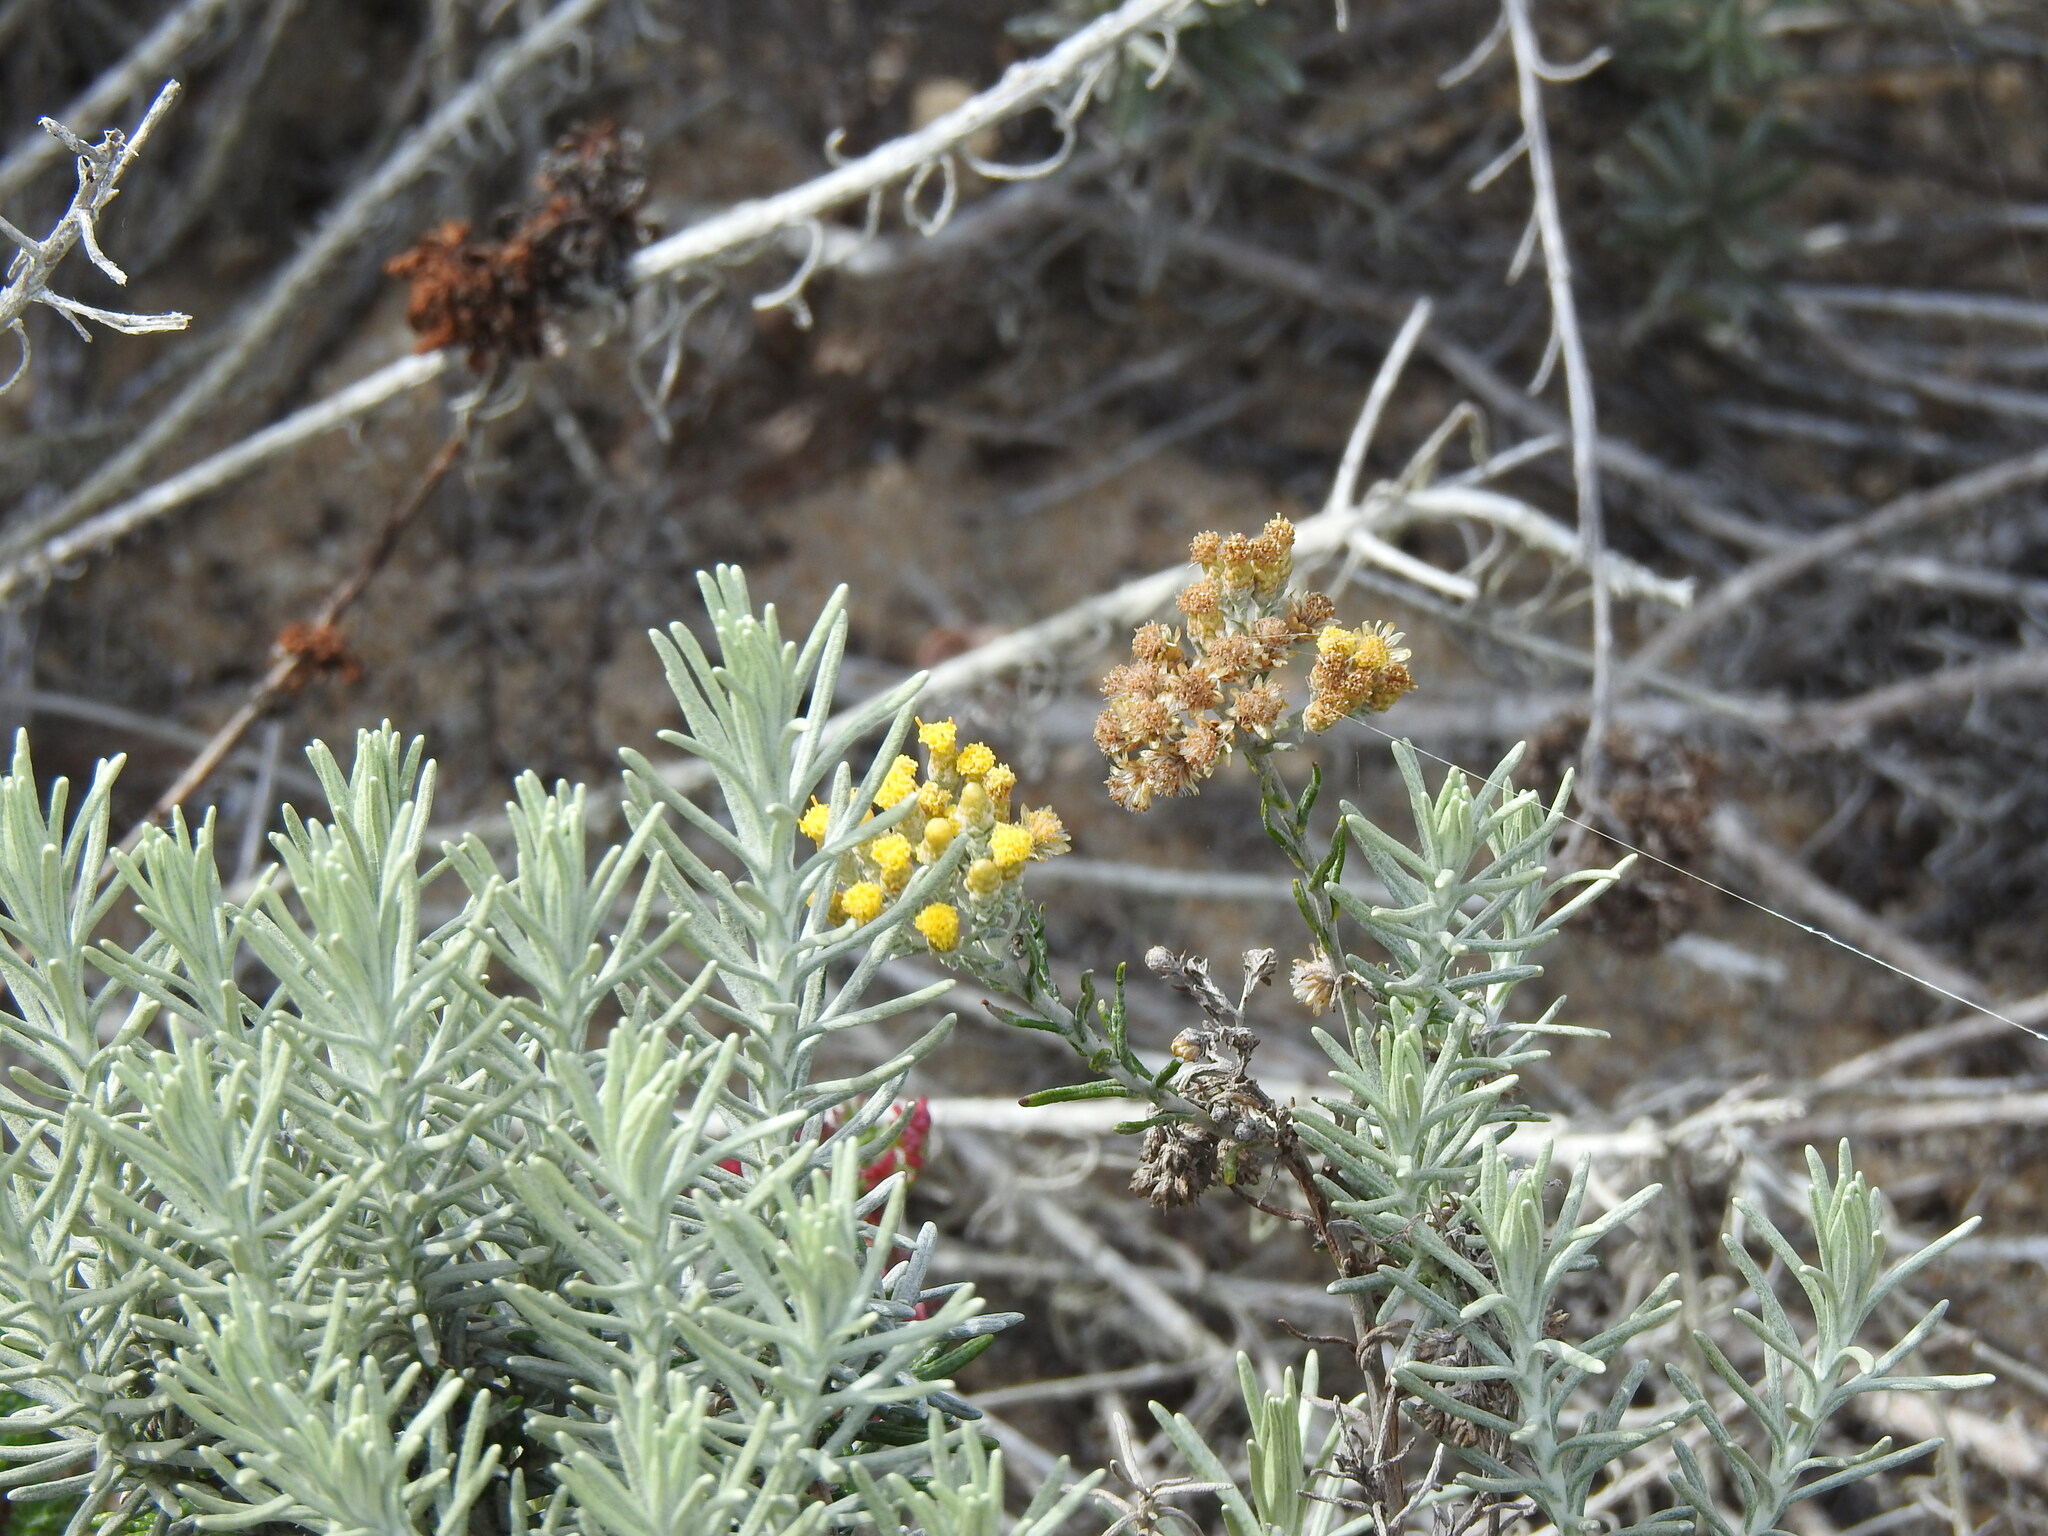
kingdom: Plantae
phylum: Tracheophyta
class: Magnoliopsida
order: Asterales
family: Asteraceae
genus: Helichrysum
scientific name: Helichrysum serotinum
